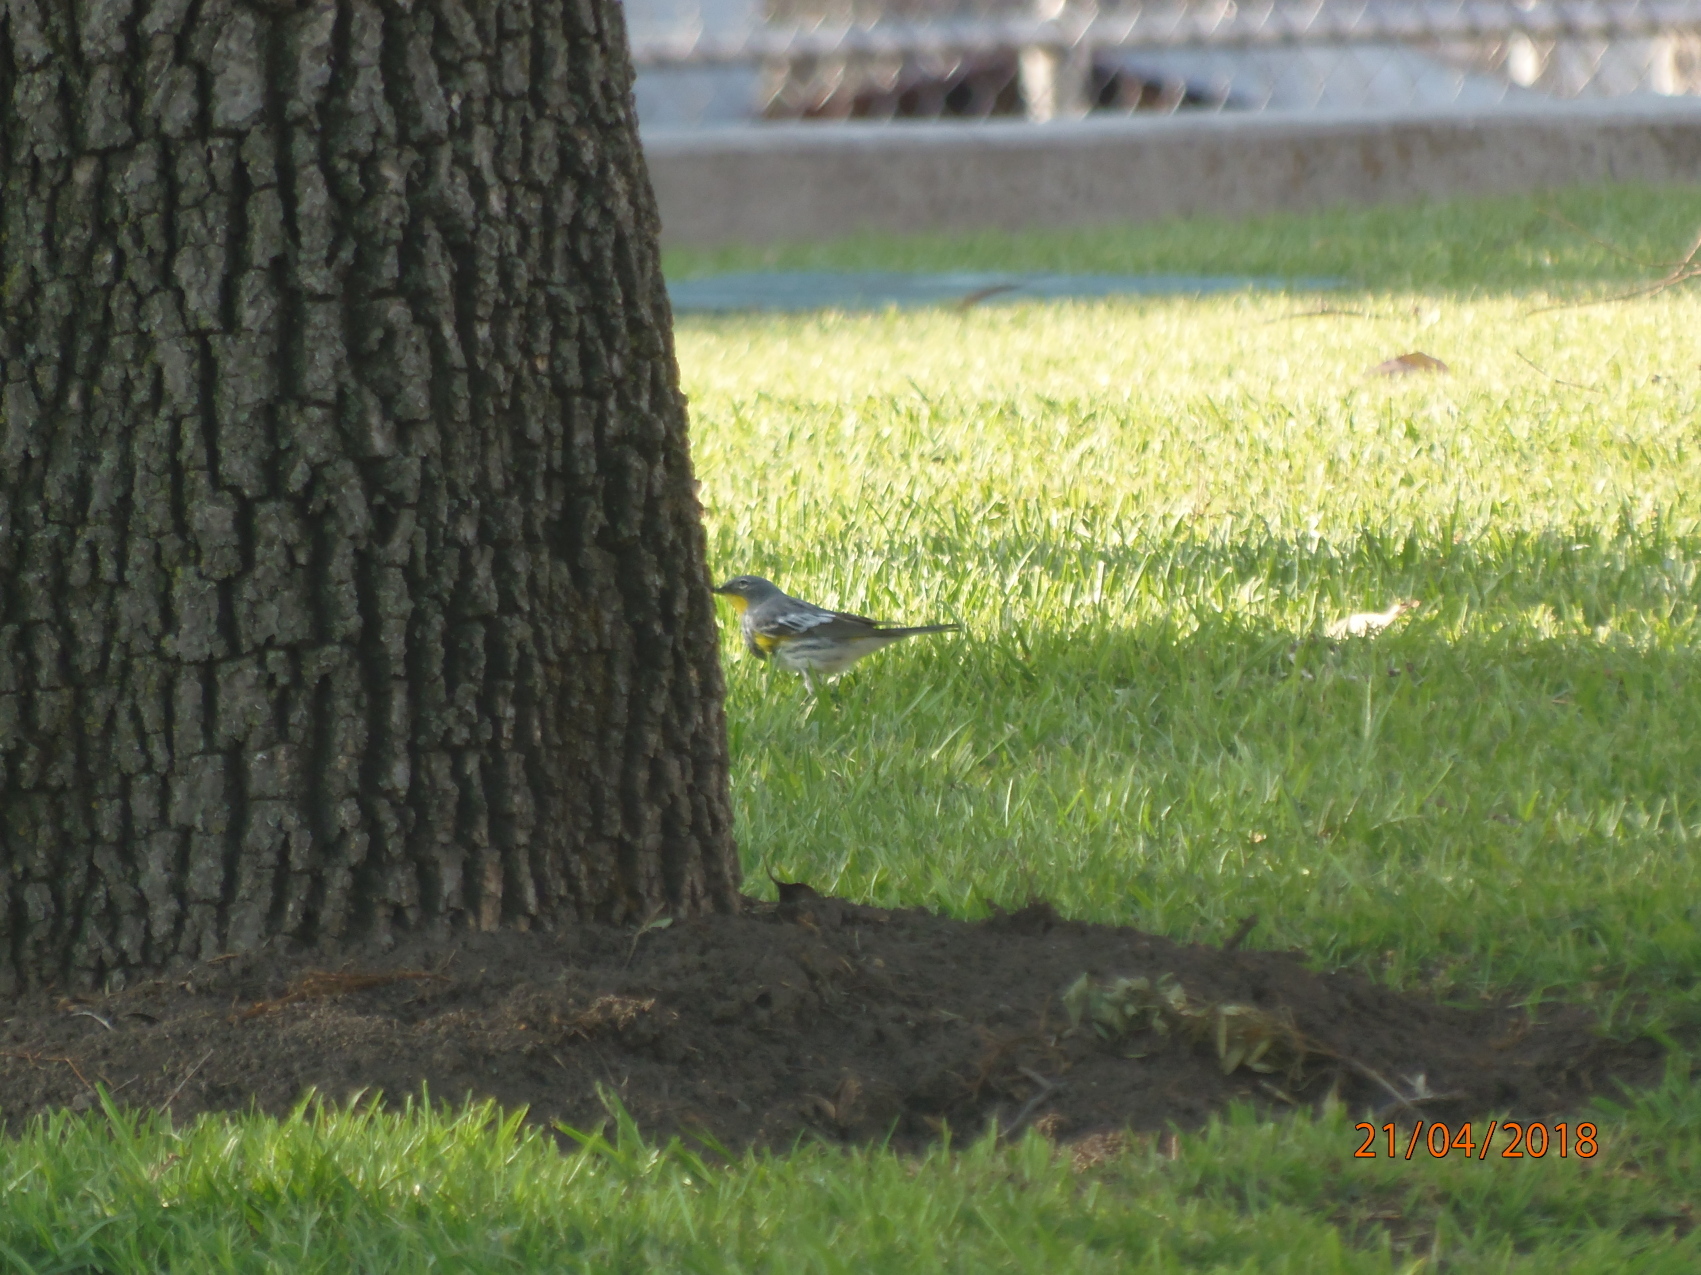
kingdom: Animalia
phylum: Chordata
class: Aves
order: Passeriformes
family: Parulidae
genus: Setophaga
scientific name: Setophaga auduboni
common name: Audubon's warbler
